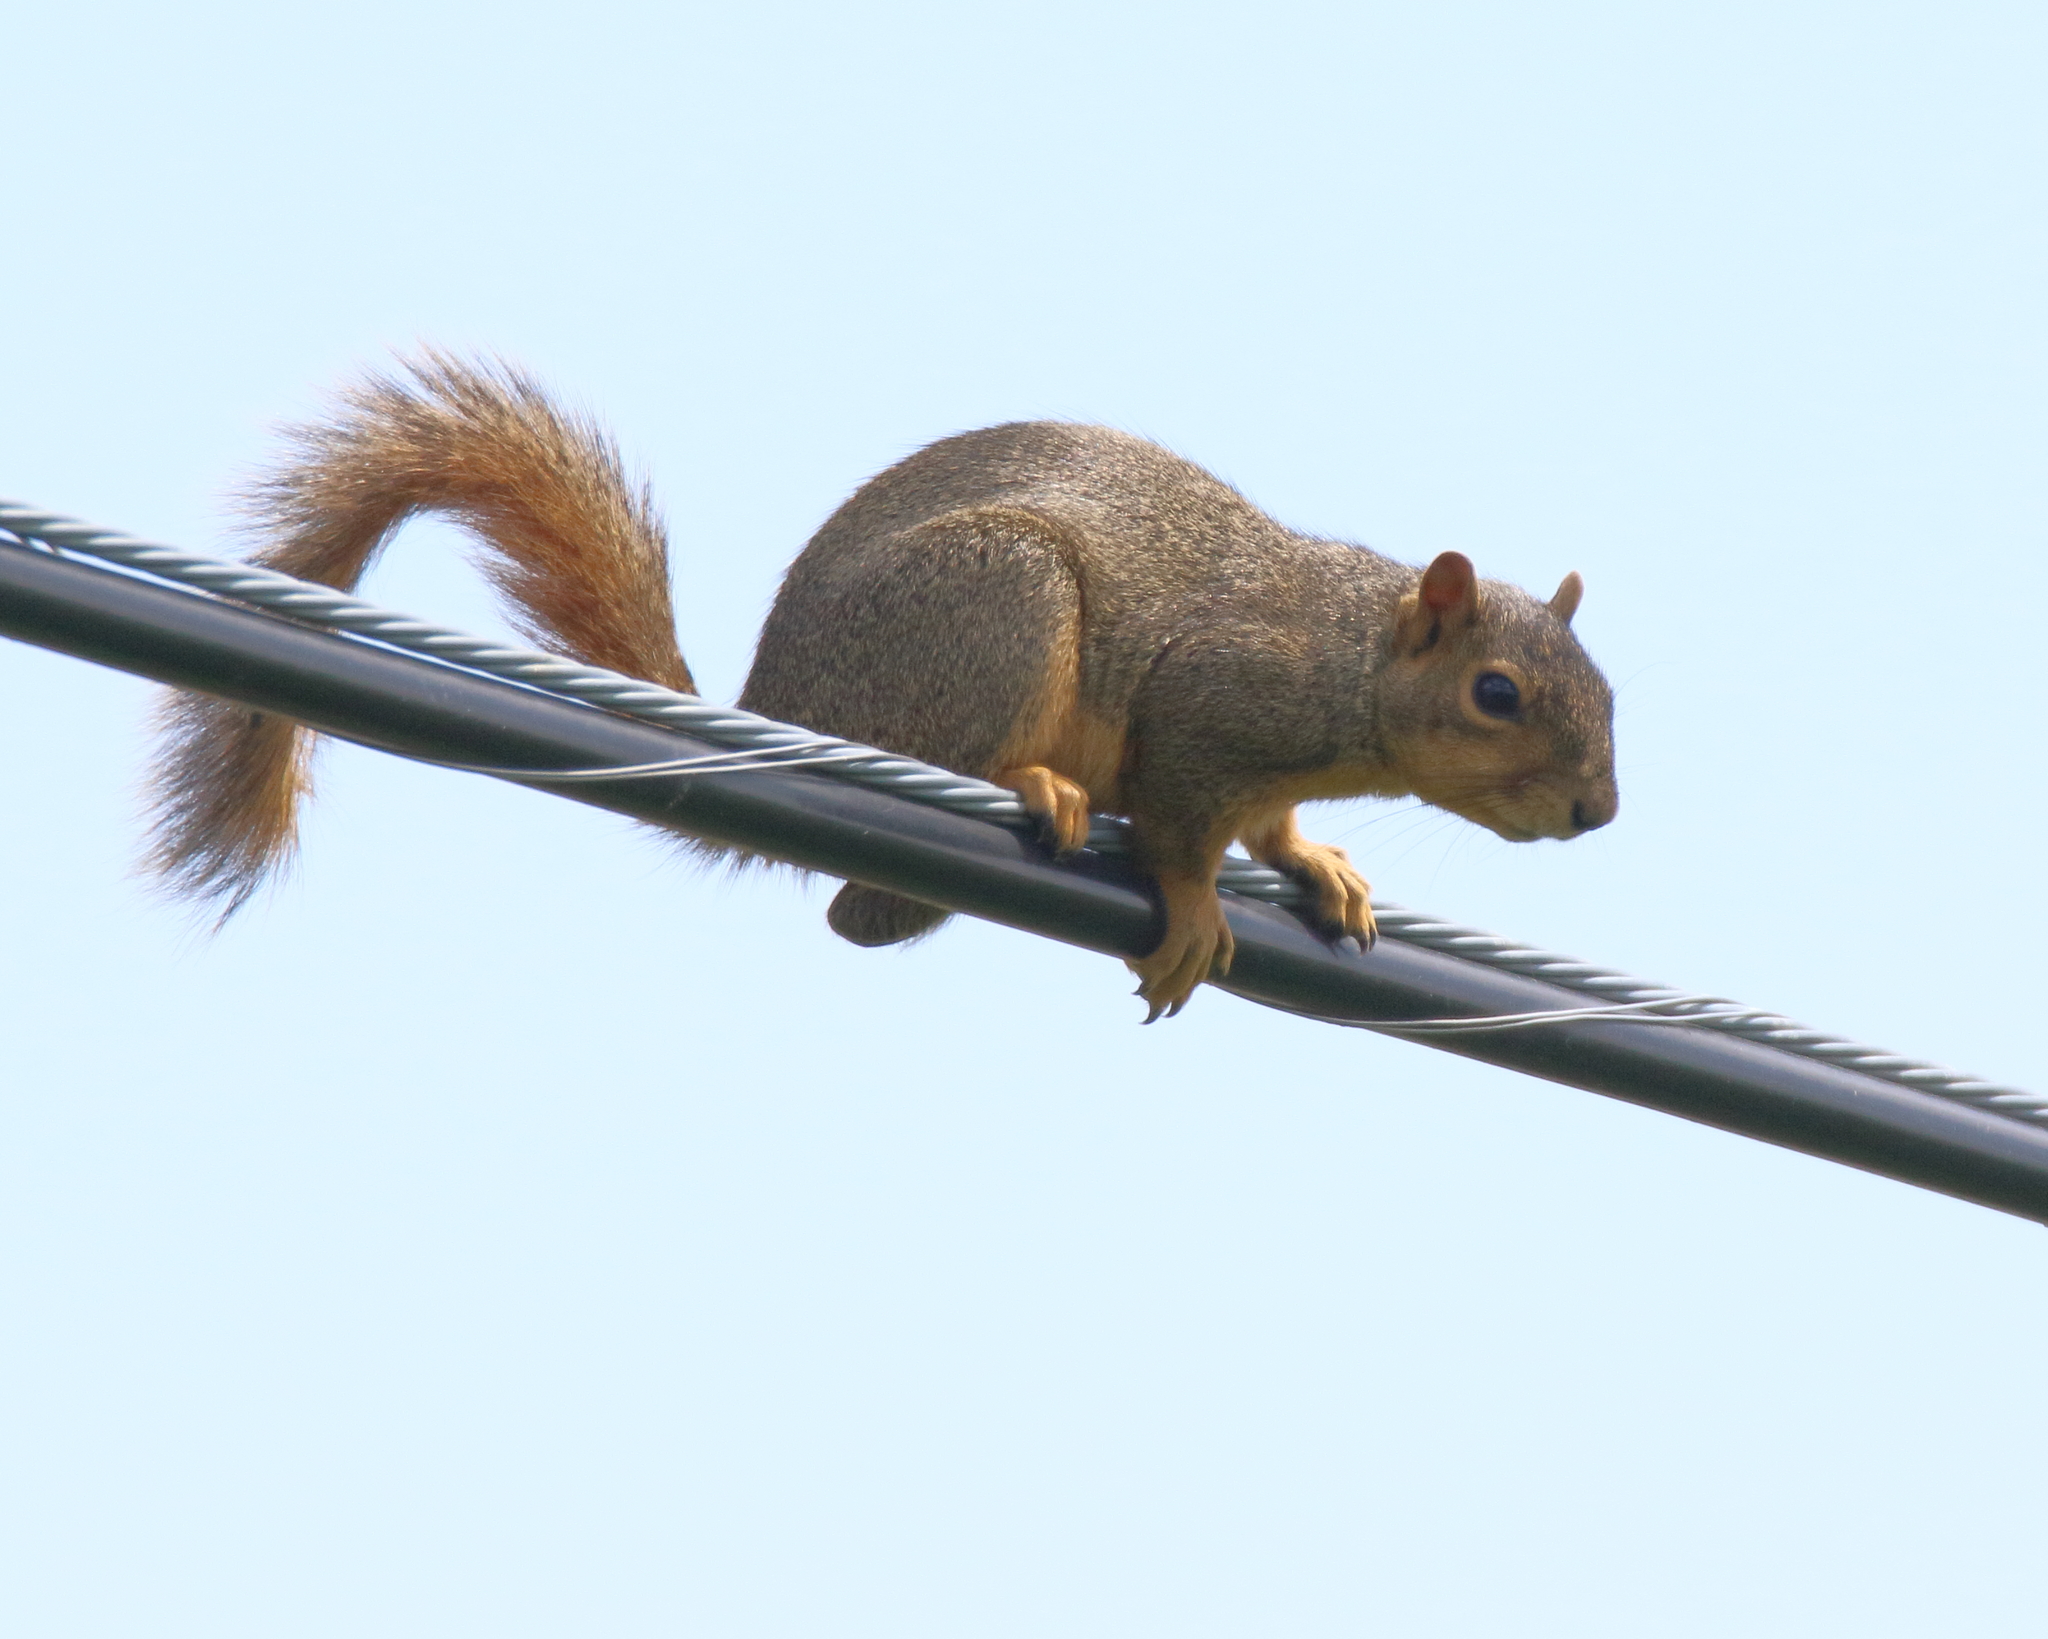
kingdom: Animalia
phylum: Chordata
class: Mammalia
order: Rodentia
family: Sciuridae
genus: Sciurus
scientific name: Sciurus niger
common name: Fox squirrel
